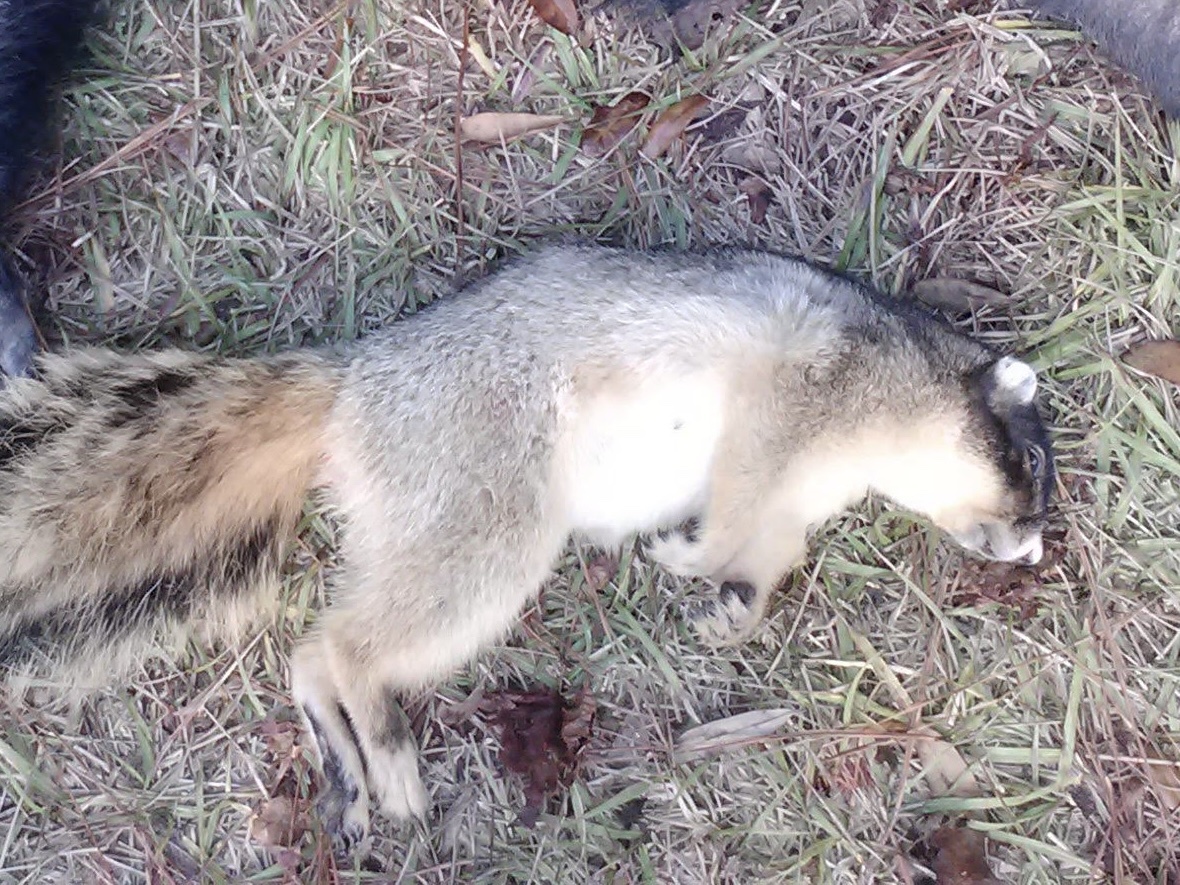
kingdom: Animalia
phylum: Chordata
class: Mammalia
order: Rodentia
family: Sciuridae
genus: Sciurus
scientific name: Sciurus niger
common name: Fox squirrel
